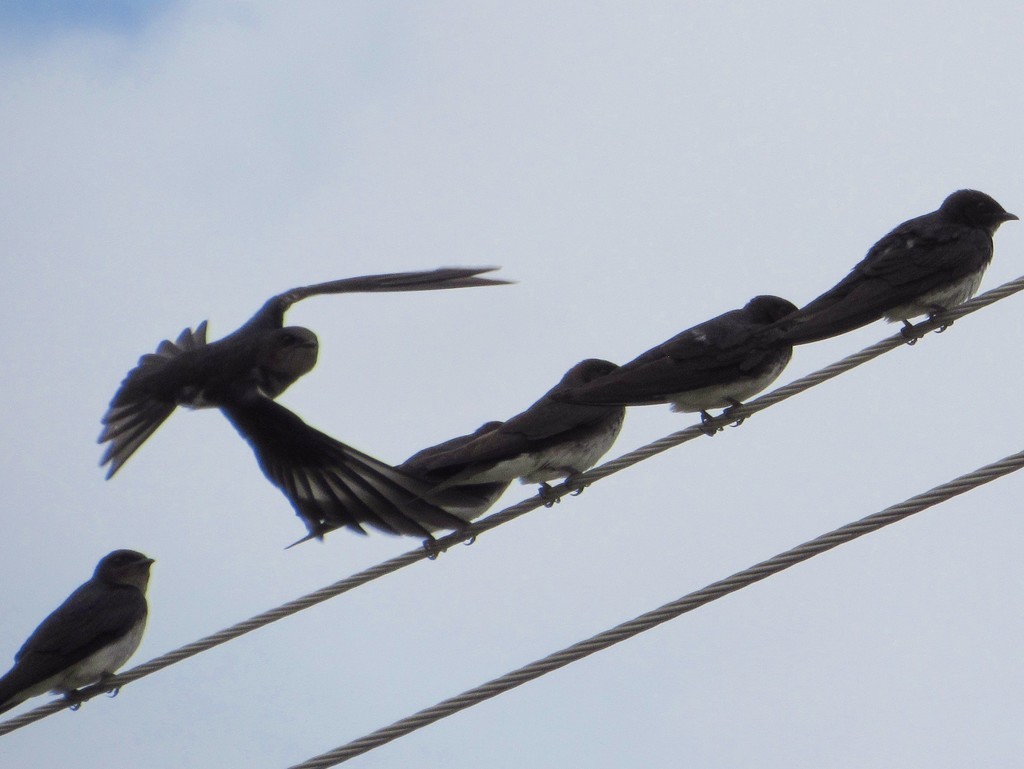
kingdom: Animalia
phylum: Chordata
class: Aves
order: Passeriformes
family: Hirundinidae
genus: Progne
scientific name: Progne chalybea
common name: Grey-breasted martin
